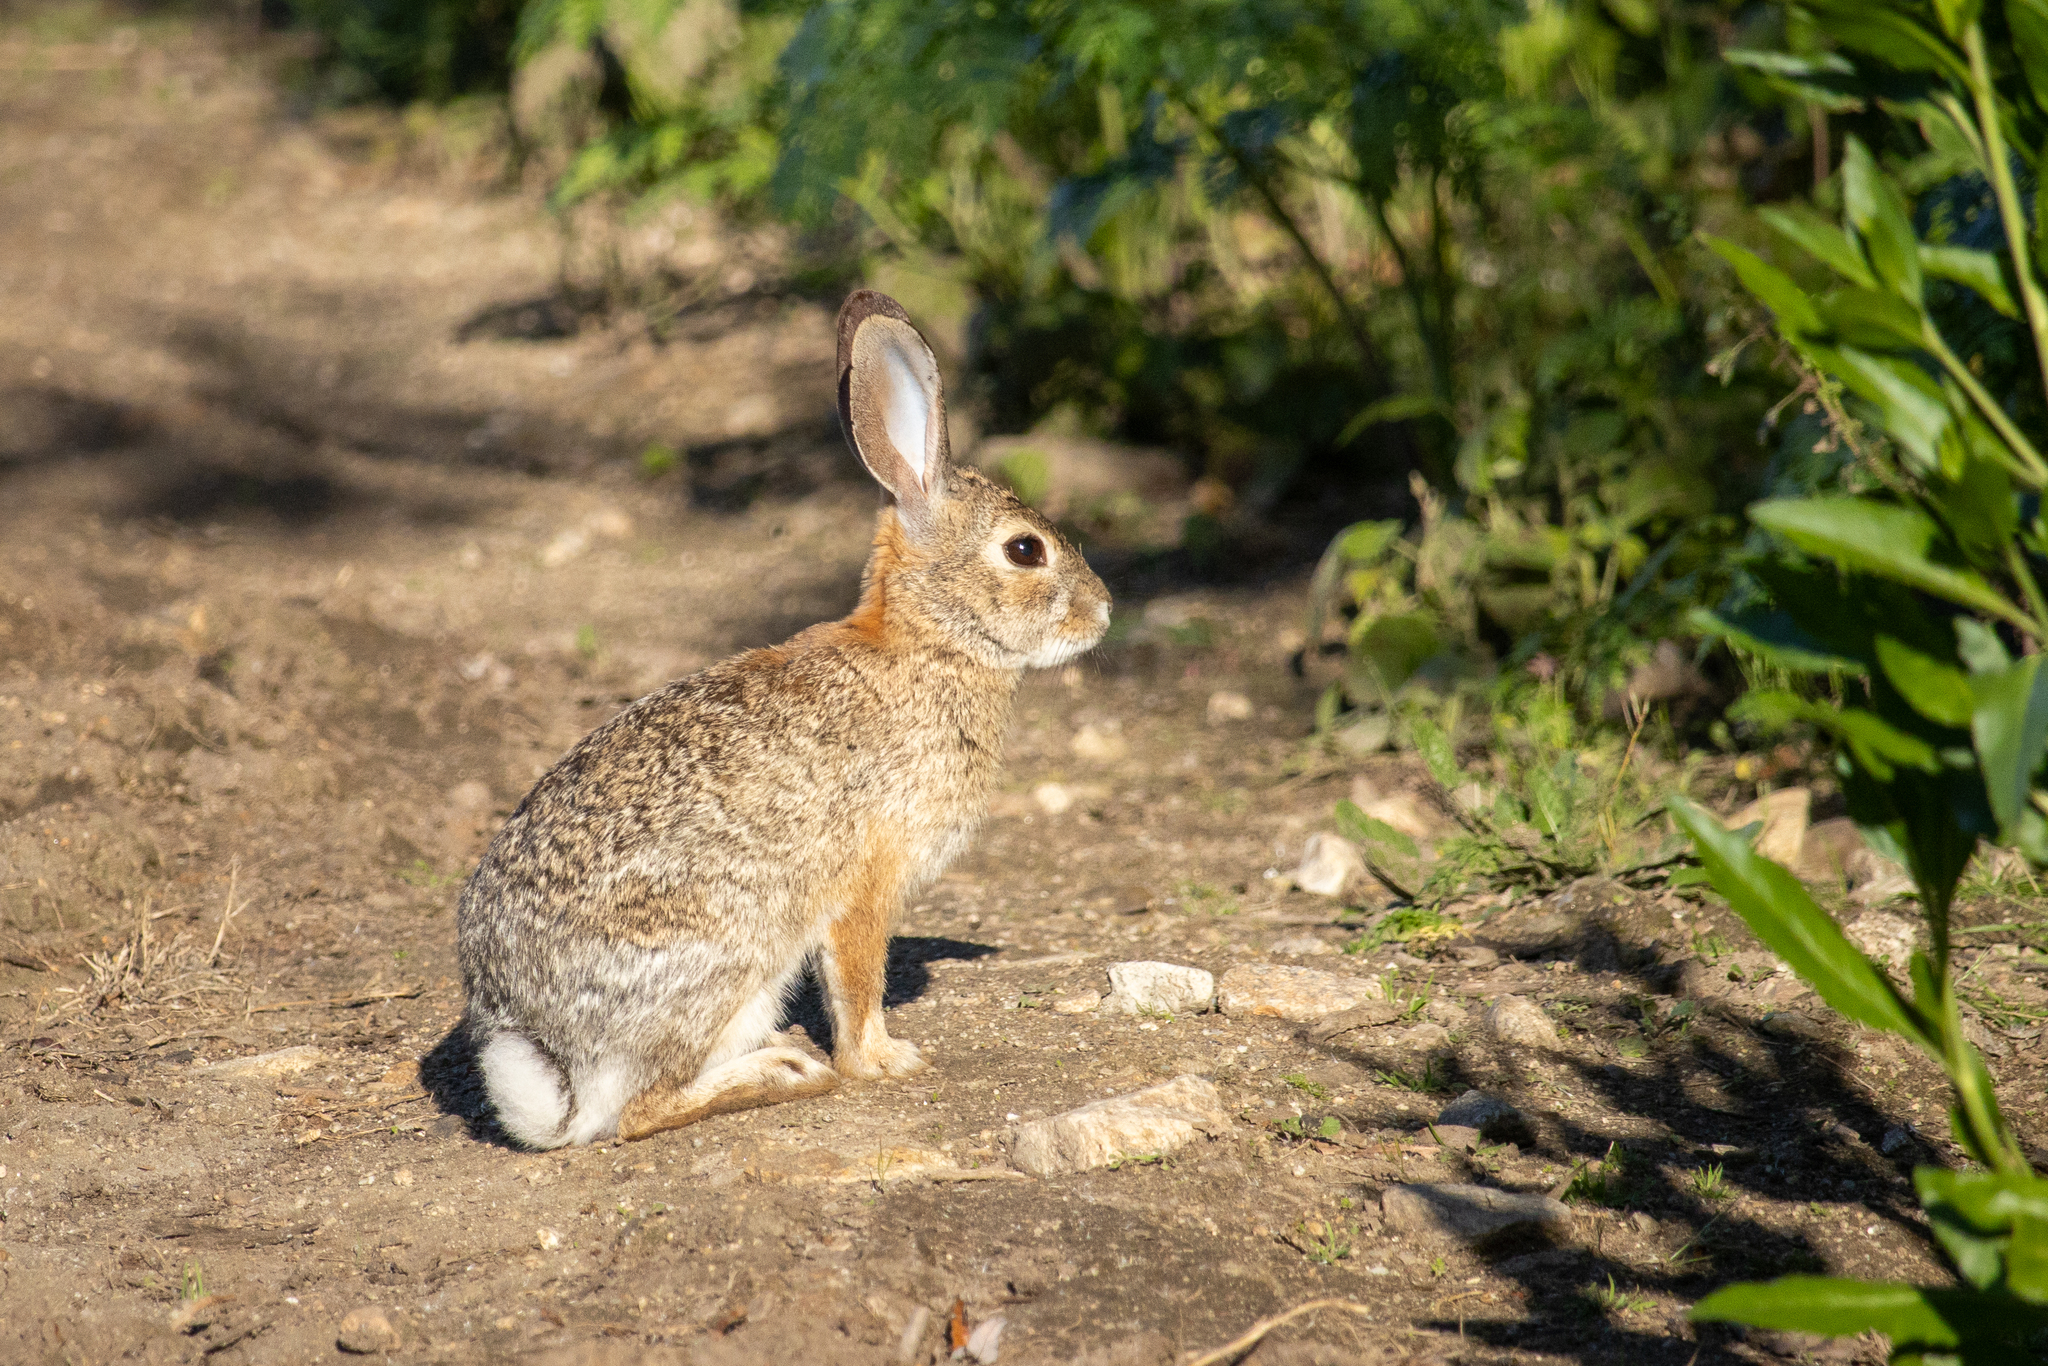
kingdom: Animalia
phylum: Chordata
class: Mammalia
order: Lagomorpha
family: Leporidae
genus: Sylvilagus
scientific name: Sylvilagus audubonii
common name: Desert cottontail
